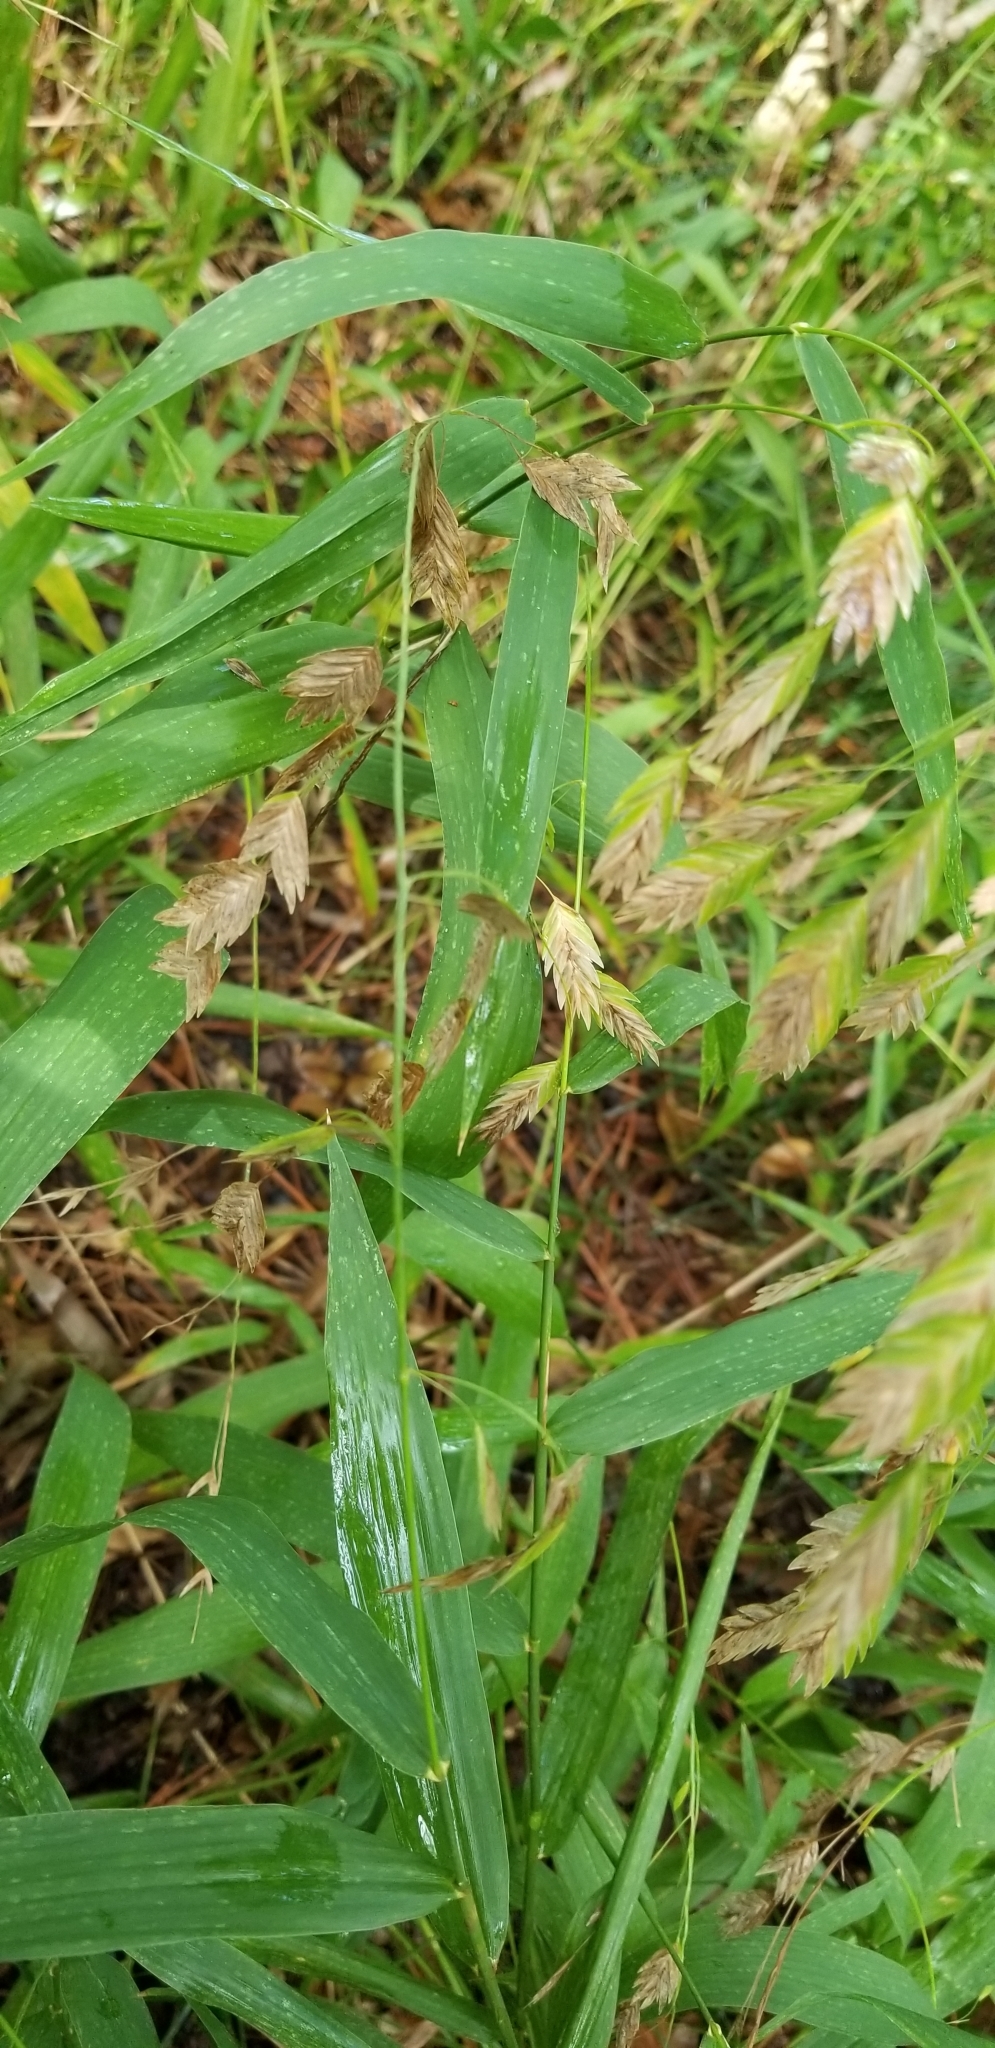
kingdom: Plantae
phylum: Tracheophyta
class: Liliopsida
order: Poales
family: Poaceae
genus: Chasmanthium
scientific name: Chasmanthium latifolium
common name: Broad-leaved chasmanthium
